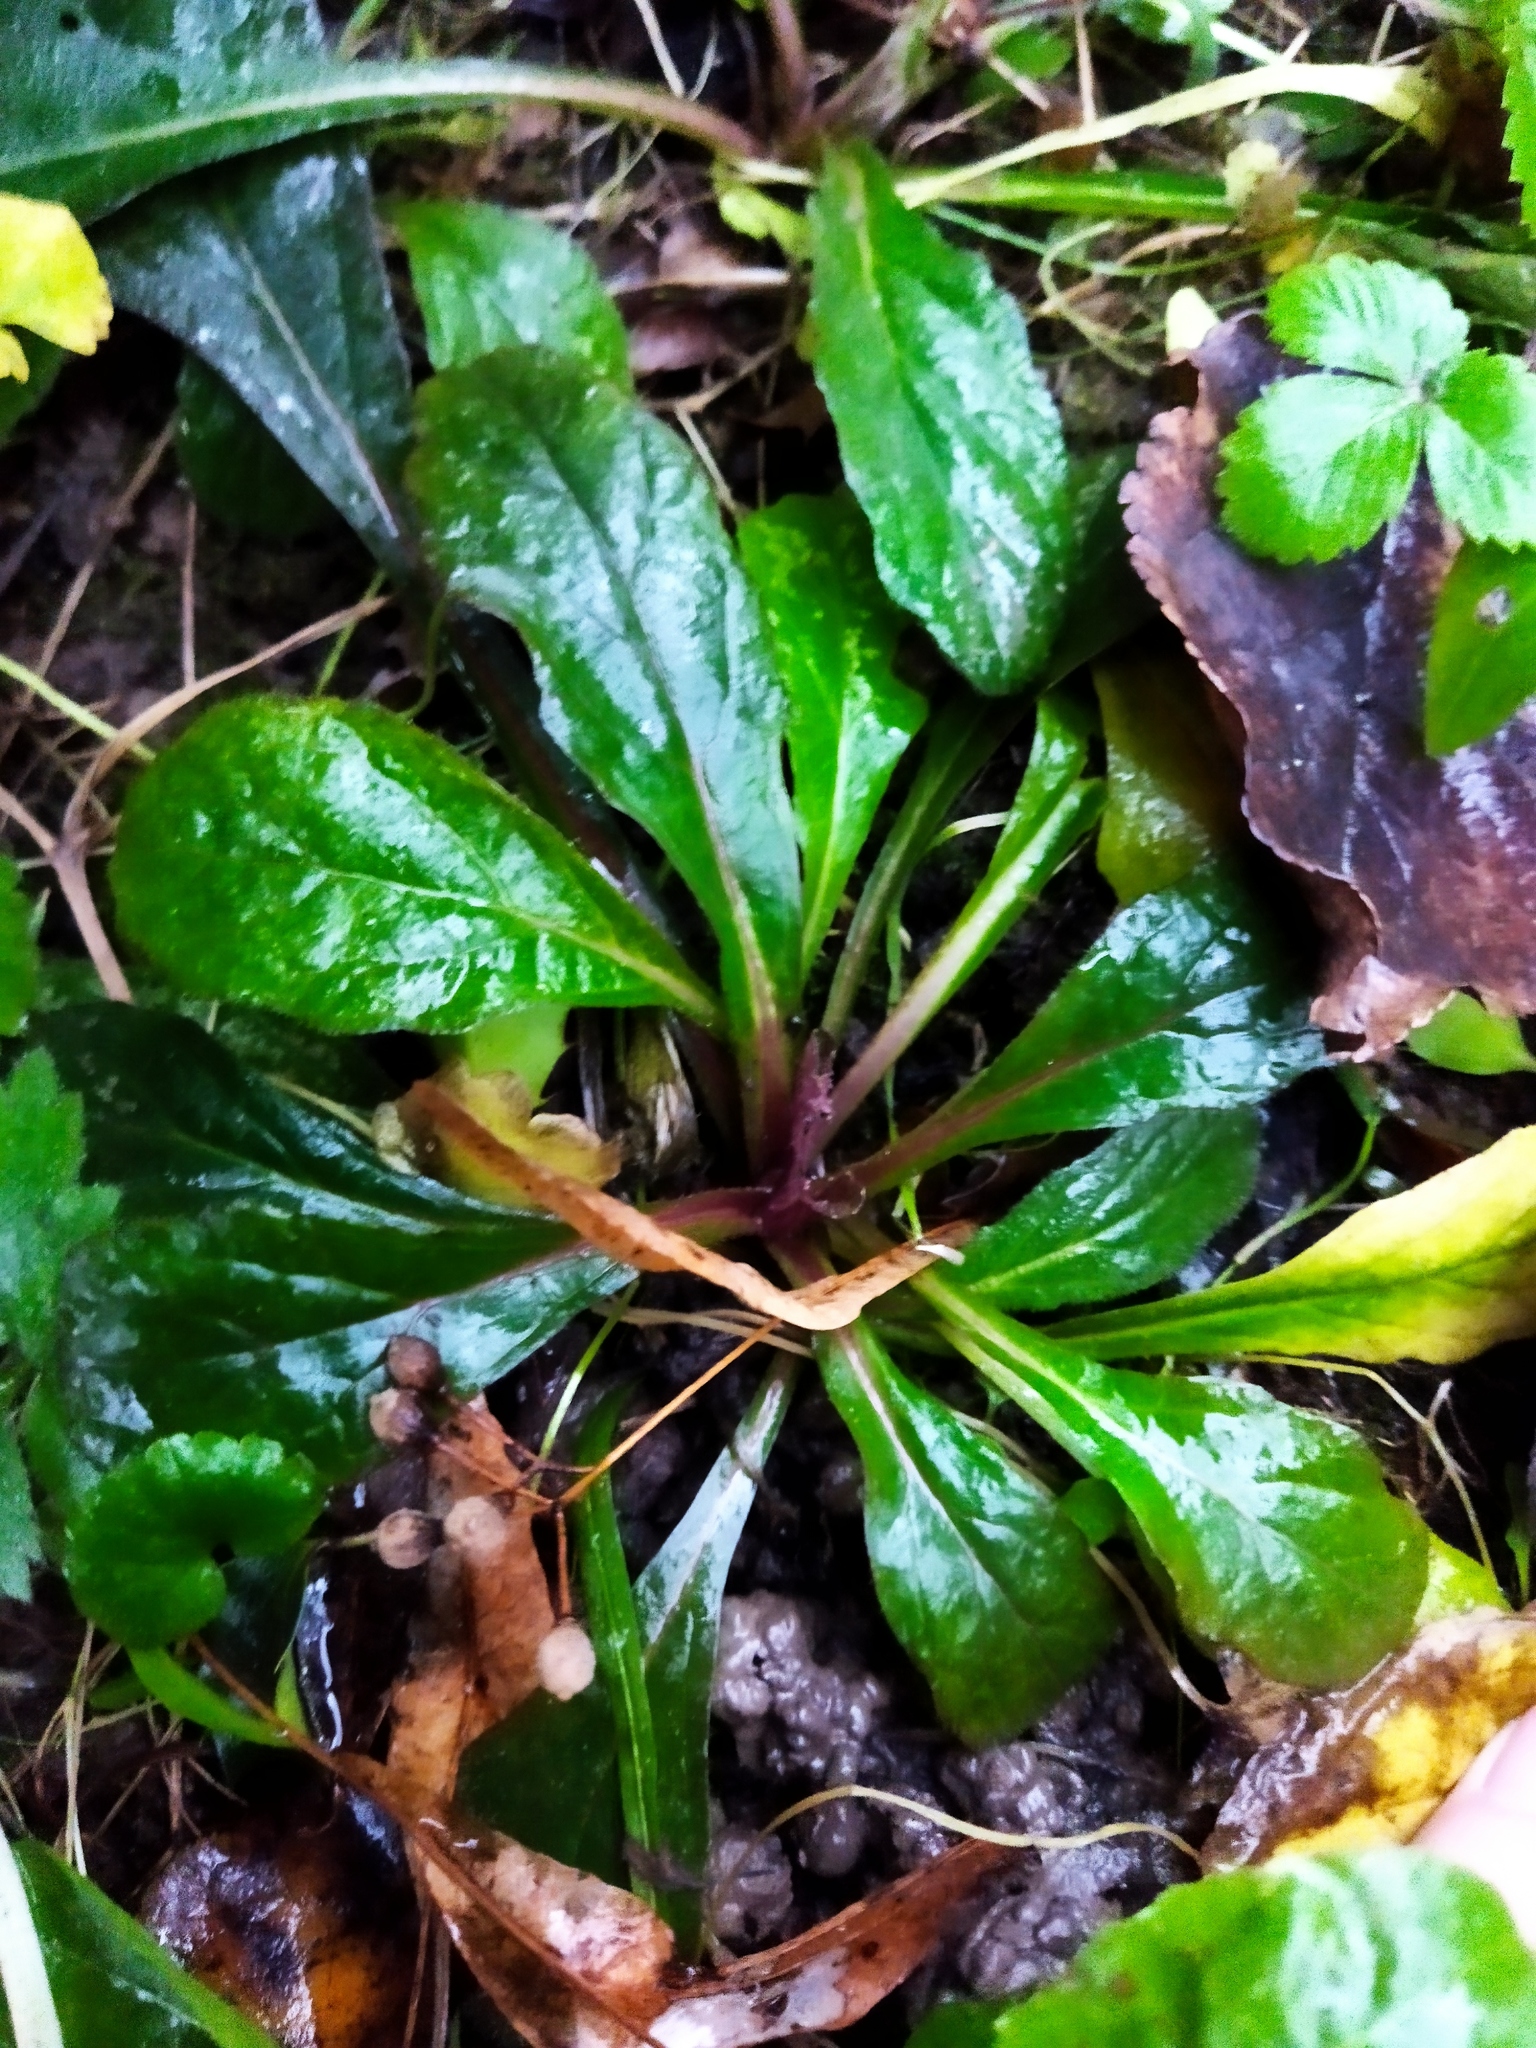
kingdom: Plantae
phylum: Tracheophyta
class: Magnoliopsida
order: Lamiales
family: Lamiaceae
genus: Ajuga
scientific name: Ajuga reptans
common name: Bugle
